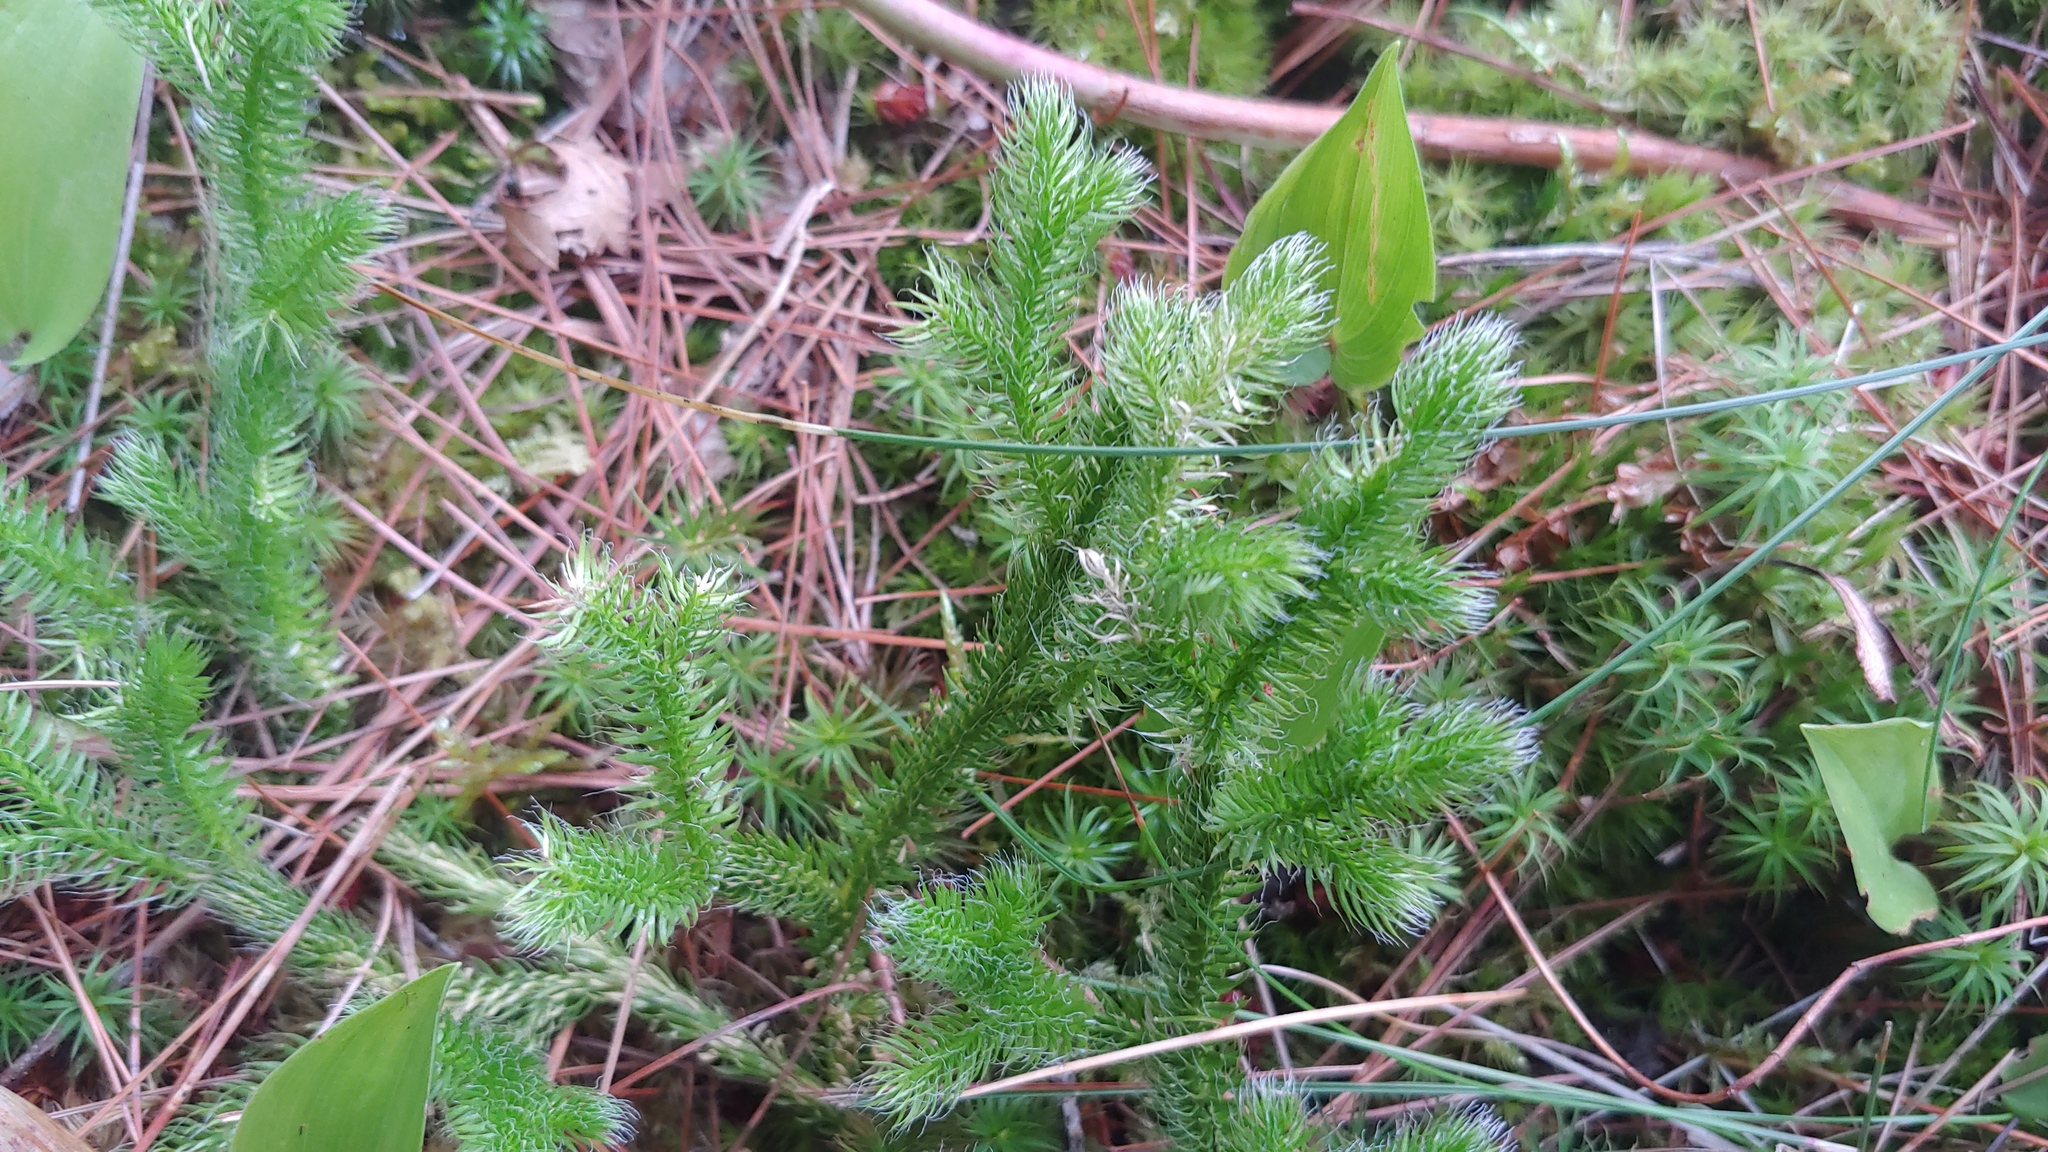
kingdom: Plantae
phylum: Tracheophyta
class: Lycopodiopsida
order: Lycopodiales
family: Lycopodiaceae
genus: Lycopodium
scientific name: Lycopodium clavatum
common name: Stag's-horn clubmoss
